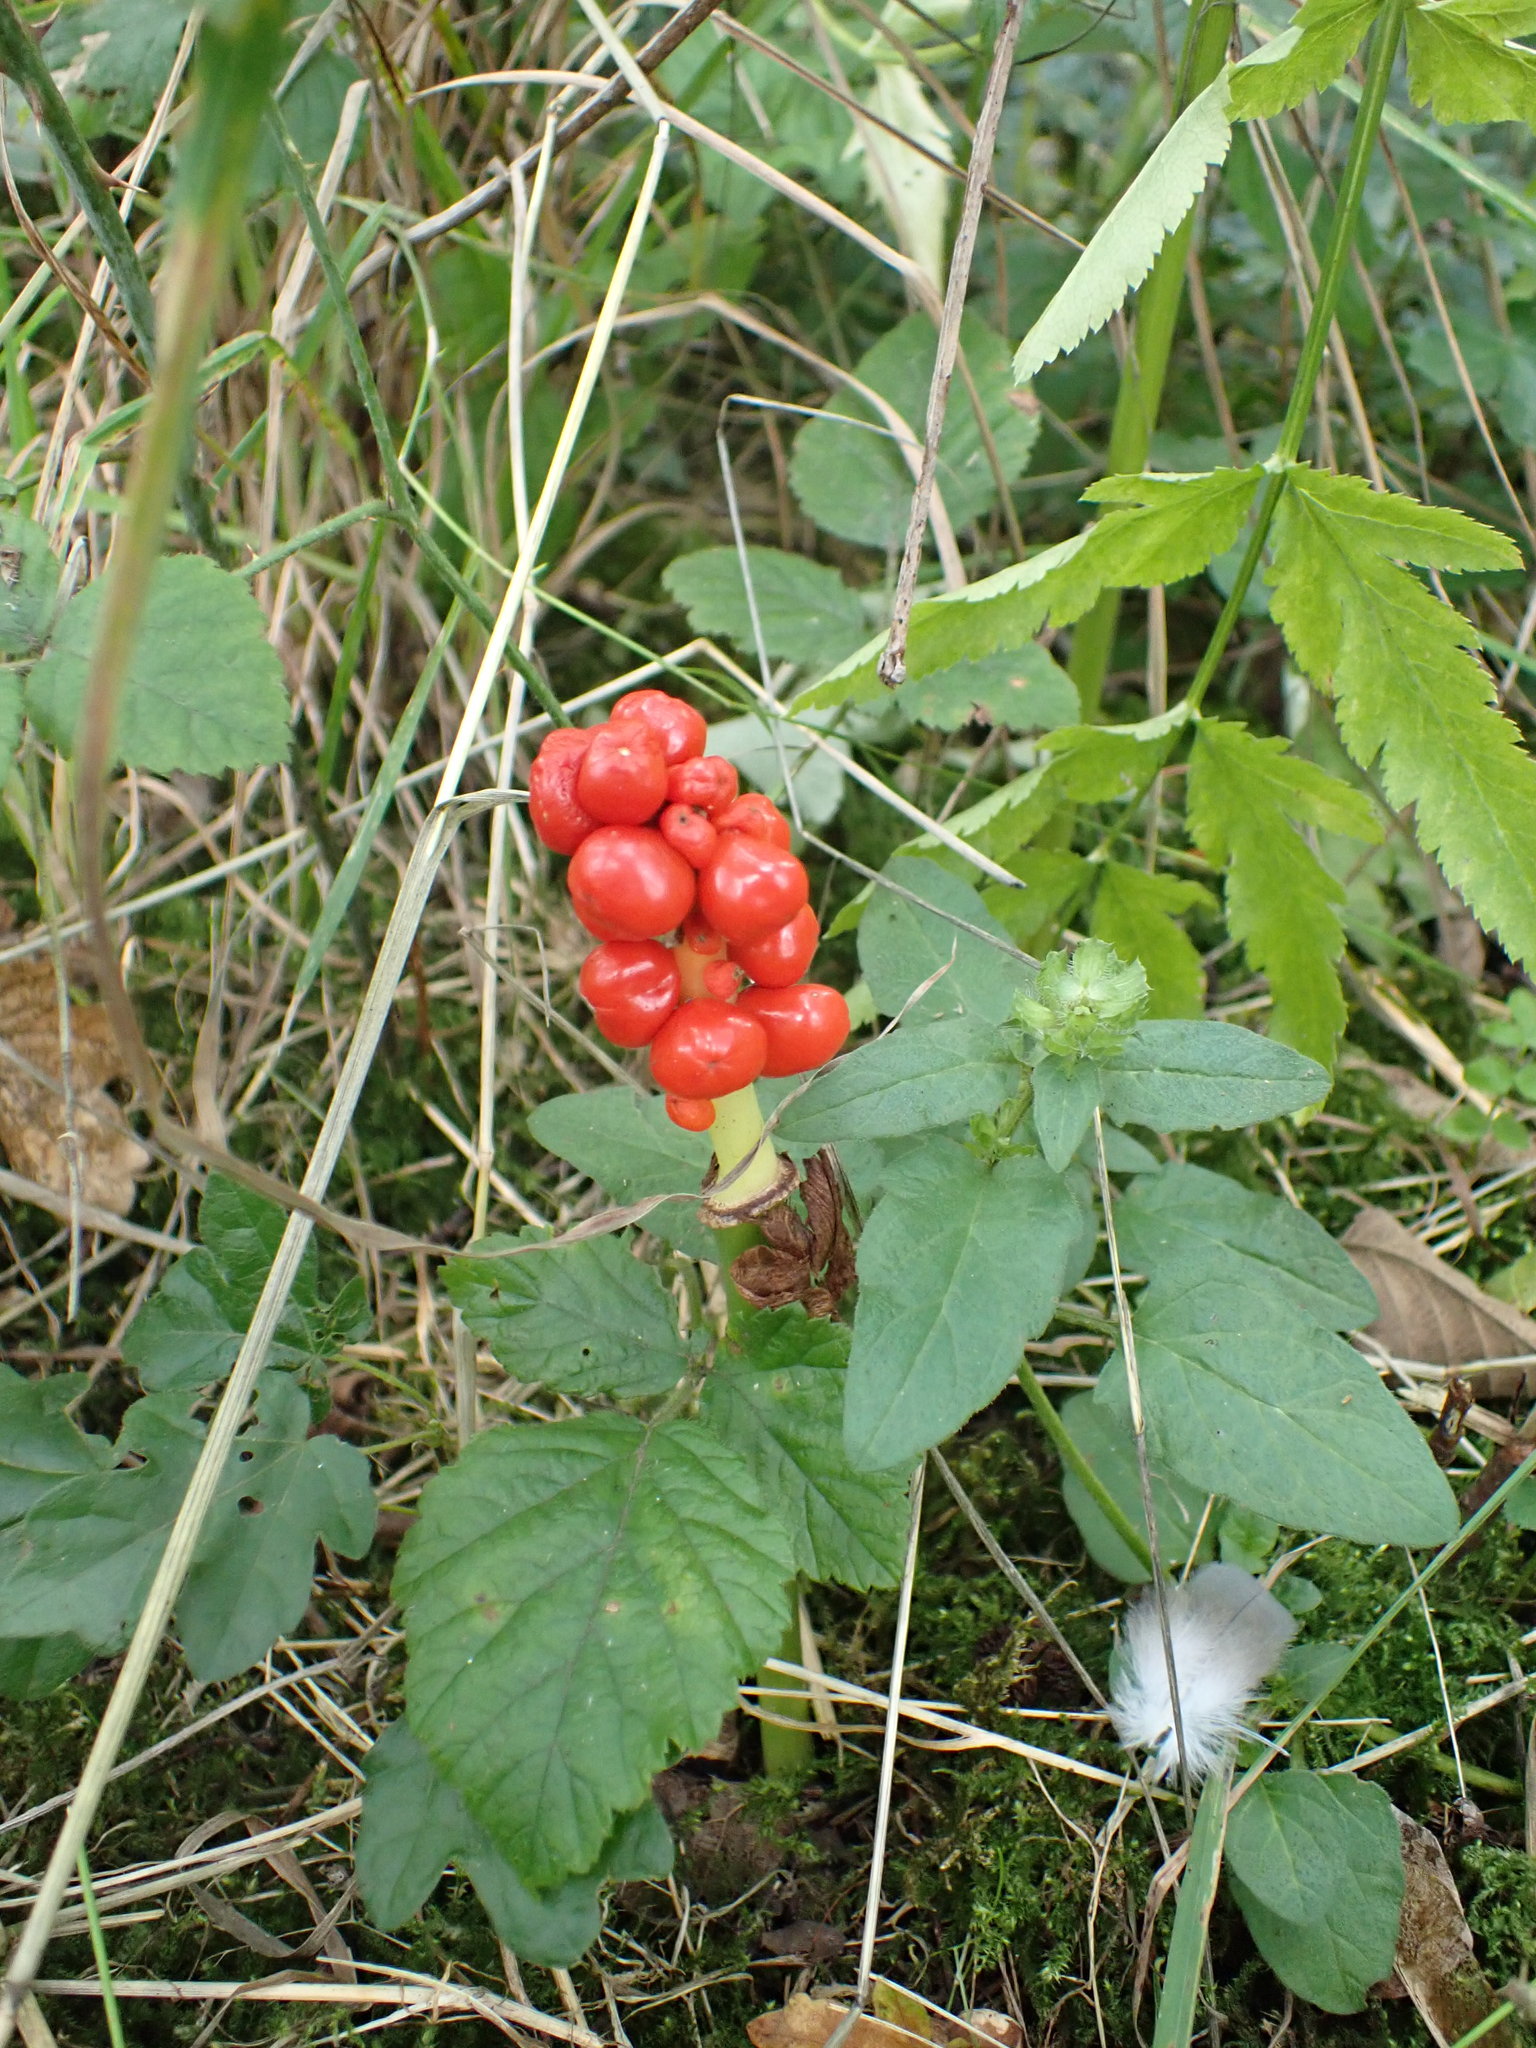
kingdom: Plantae
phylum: Tracheophyta
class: Liliopsida
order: Alismatales
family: Araceae
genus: Arum
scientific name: Arum maculatum
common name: Lords-and-ladies
